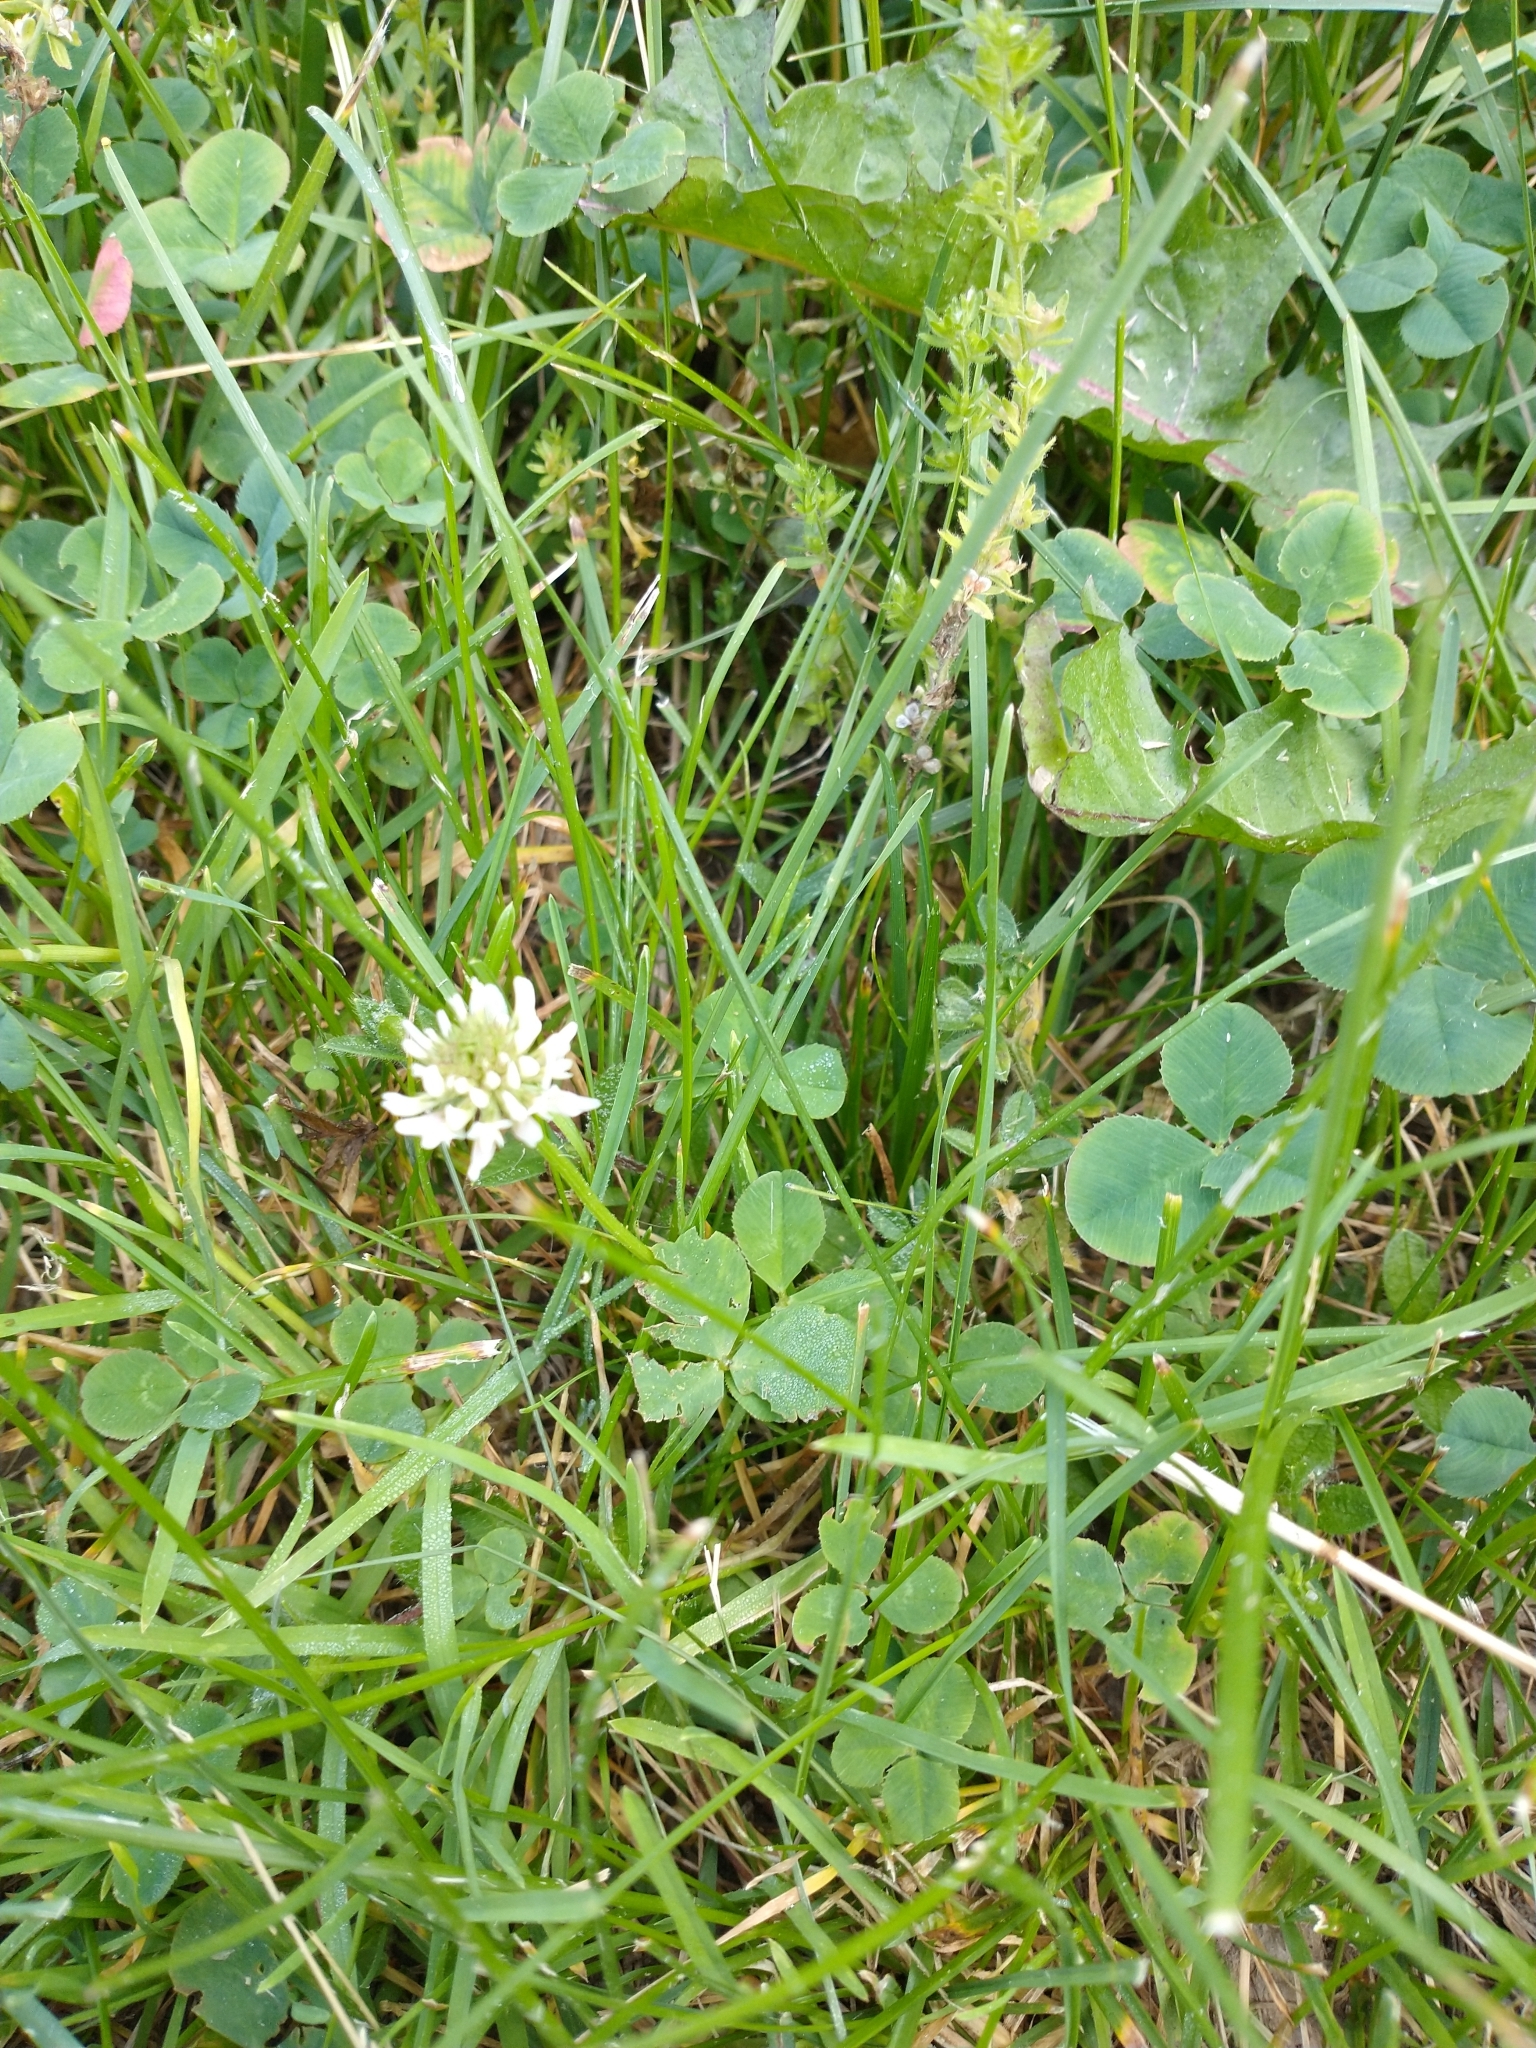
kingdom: Plantae
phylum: Tracheophyta
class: Magnoliopsida
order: Fabales
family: Fabaceae
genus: Trifolium
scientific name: Trifolium repens
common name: White clover
